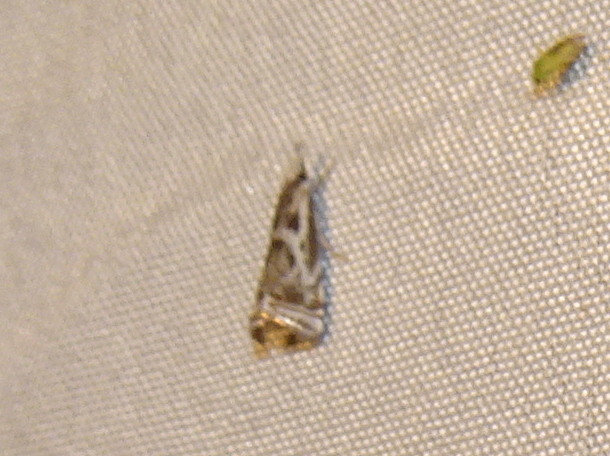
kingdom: Animalia
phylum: Arthropoda
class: Insecta
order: Lepidoptera
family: Crambidae
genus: Microcrambus
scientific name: Microcrambus elegans
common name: Elegant grass-veneer
